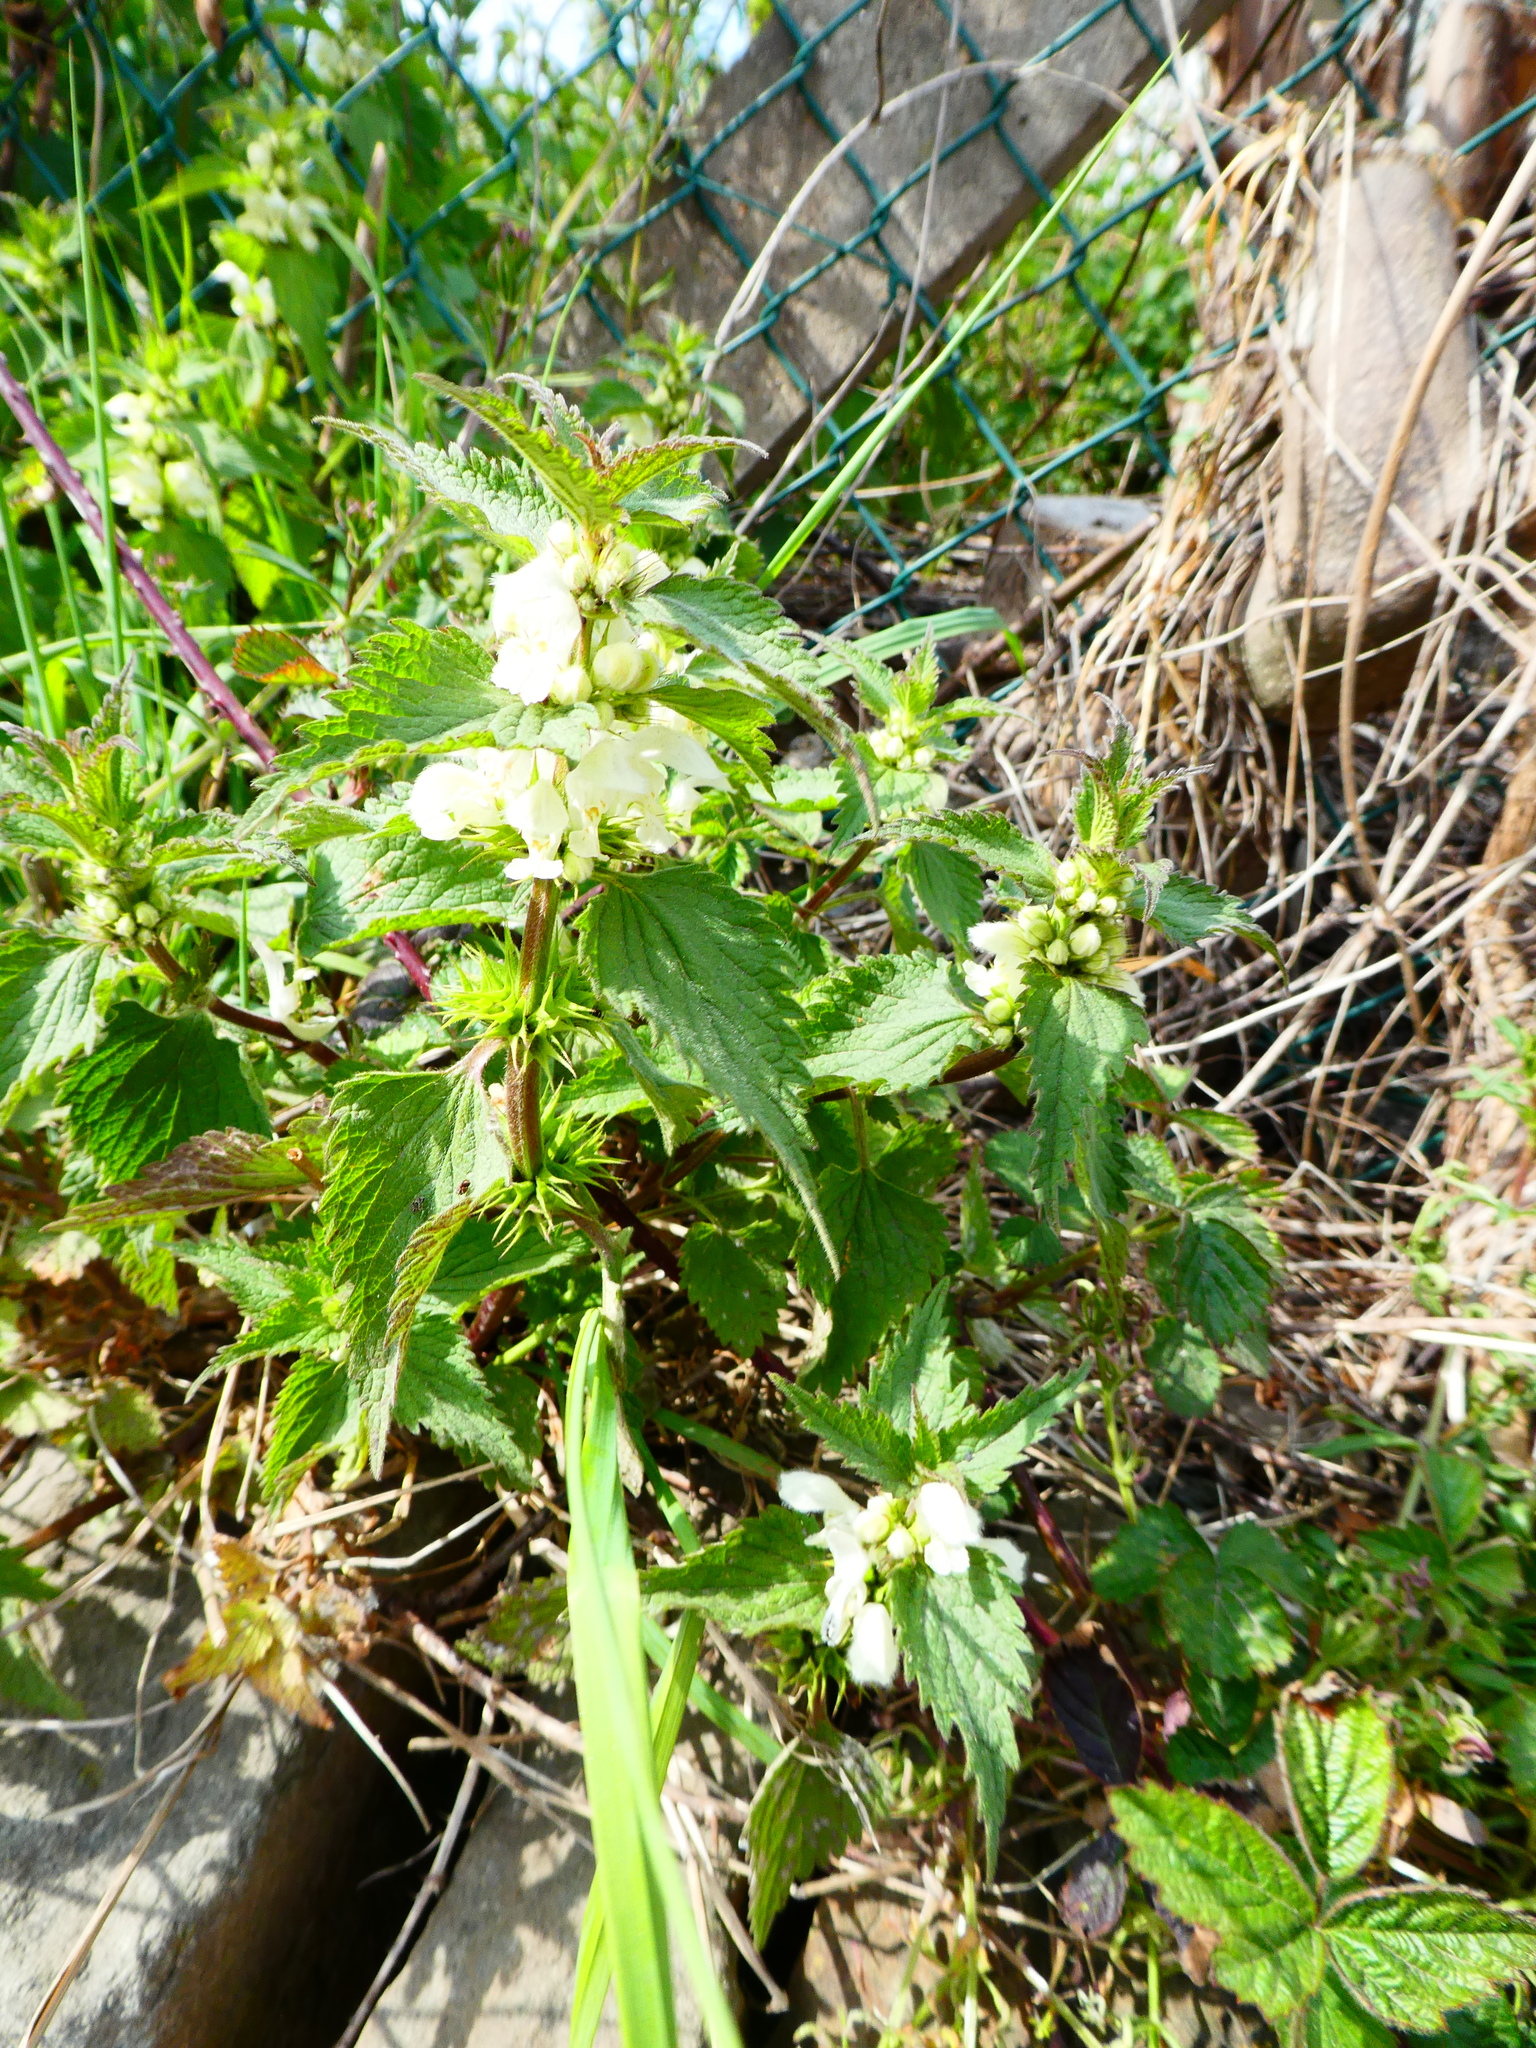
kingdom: Plantae
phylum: Tracheophyta
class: Magnoliopsida
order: Lamiales
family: Lamiaceae
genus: Lamium
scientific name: Lamium album
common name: White dead-nettle
